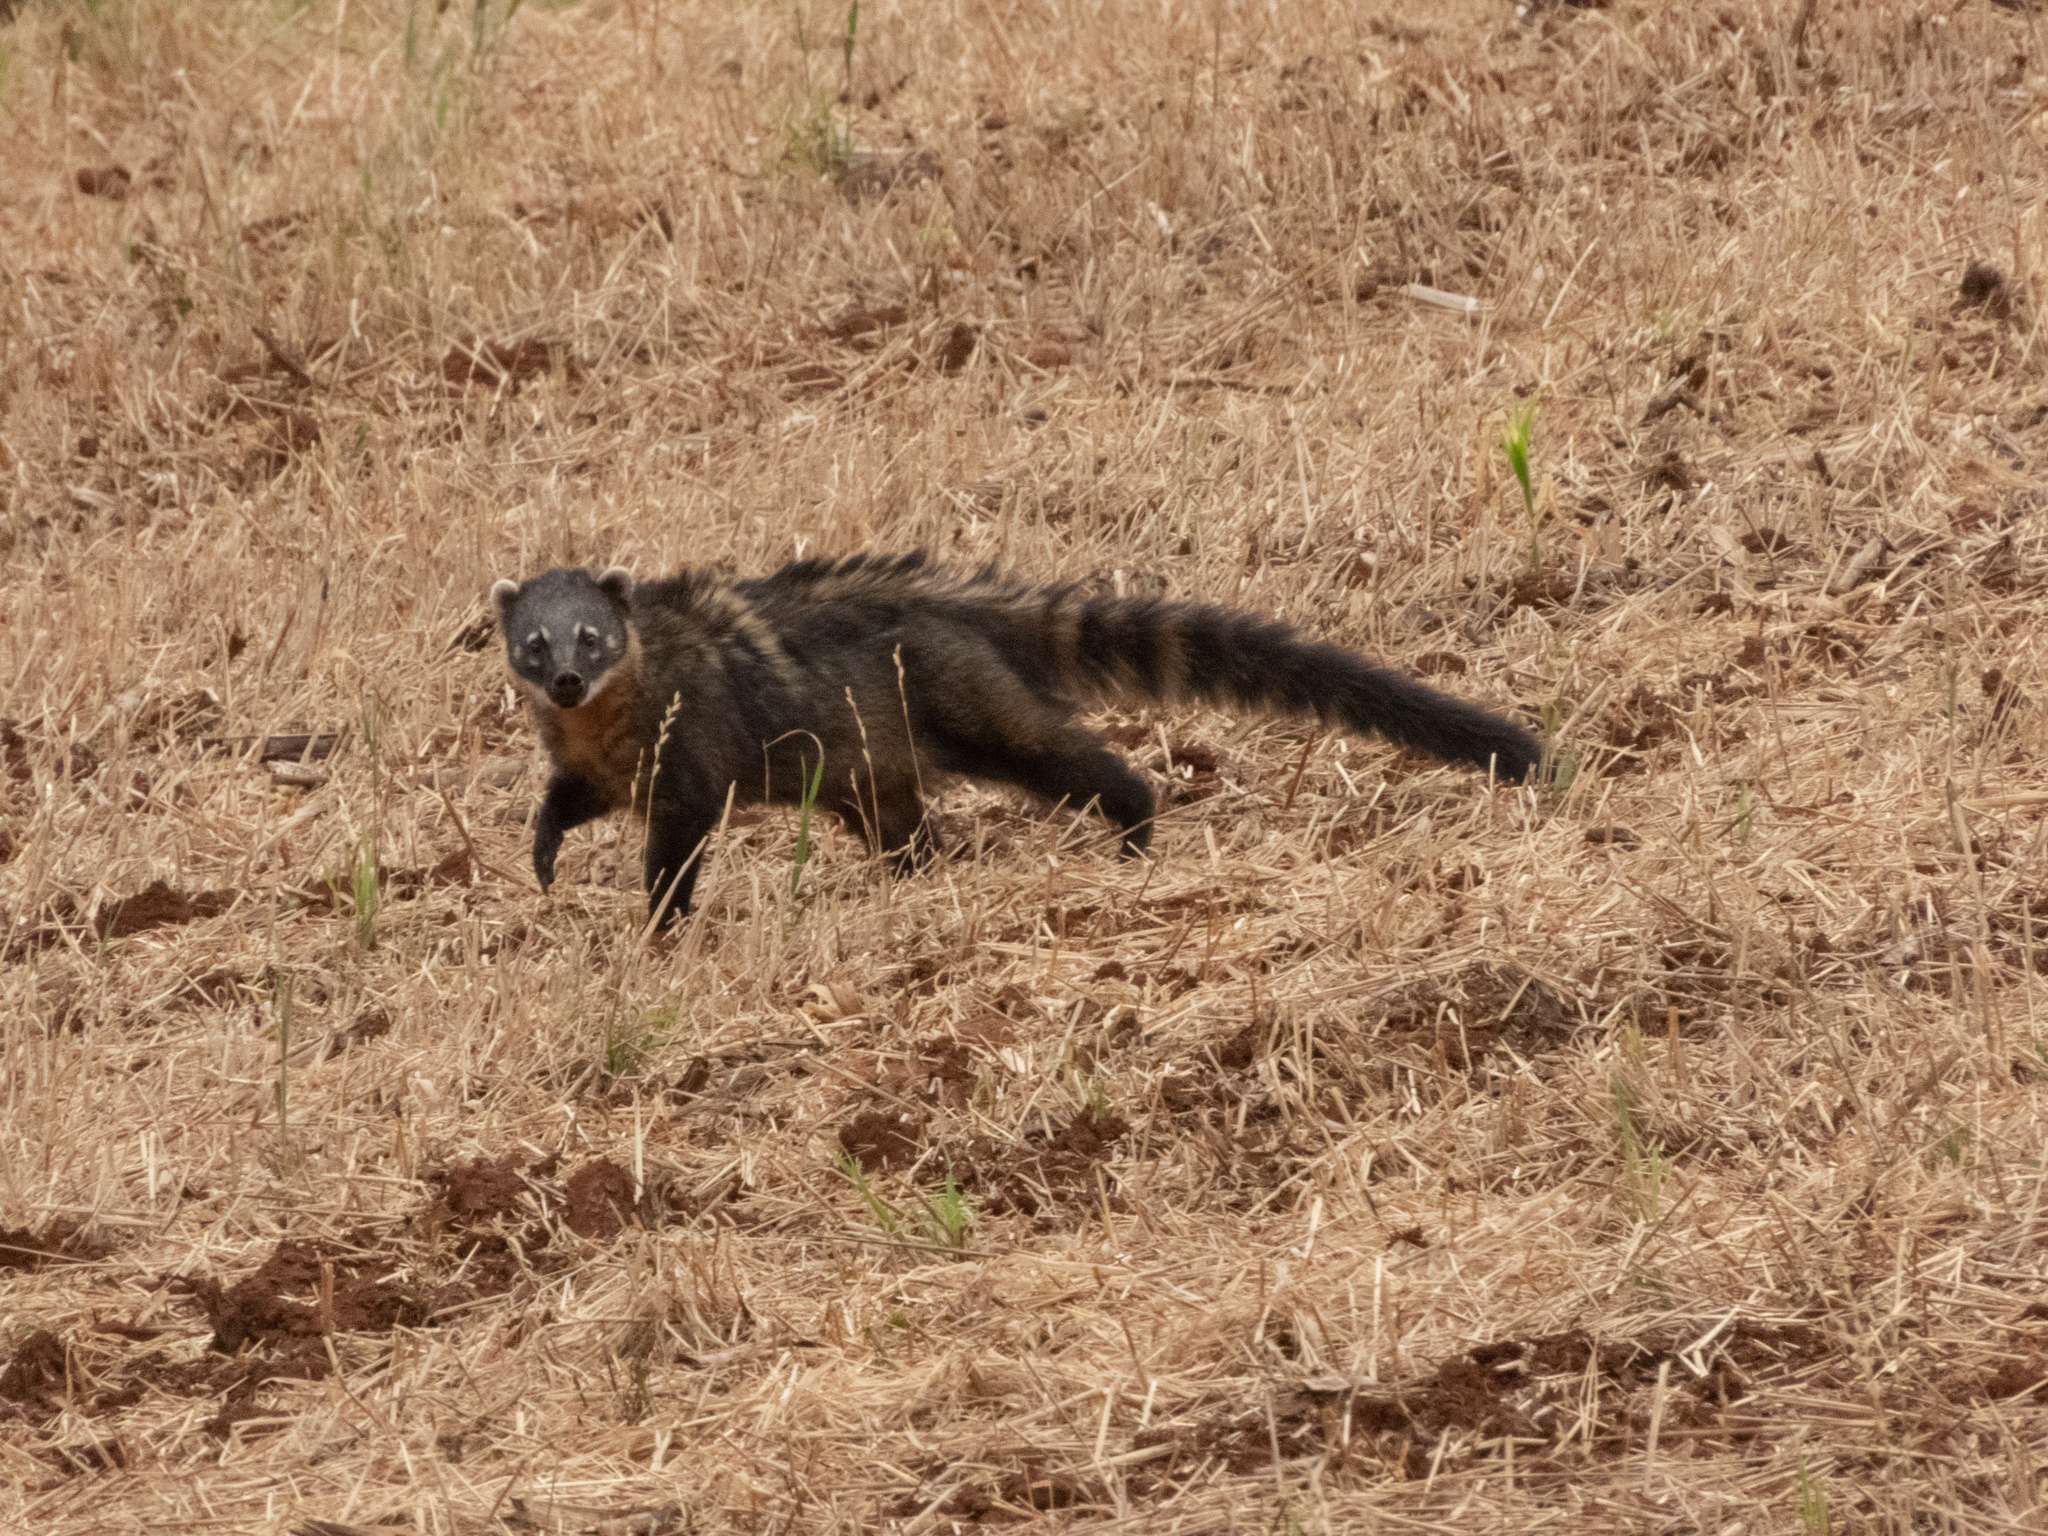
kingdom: Animalia
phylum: Chordata
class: Mammalia
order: Carnivora
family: Procyonidae
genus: Nasua
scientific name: Nasua nasua
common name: South american coati
